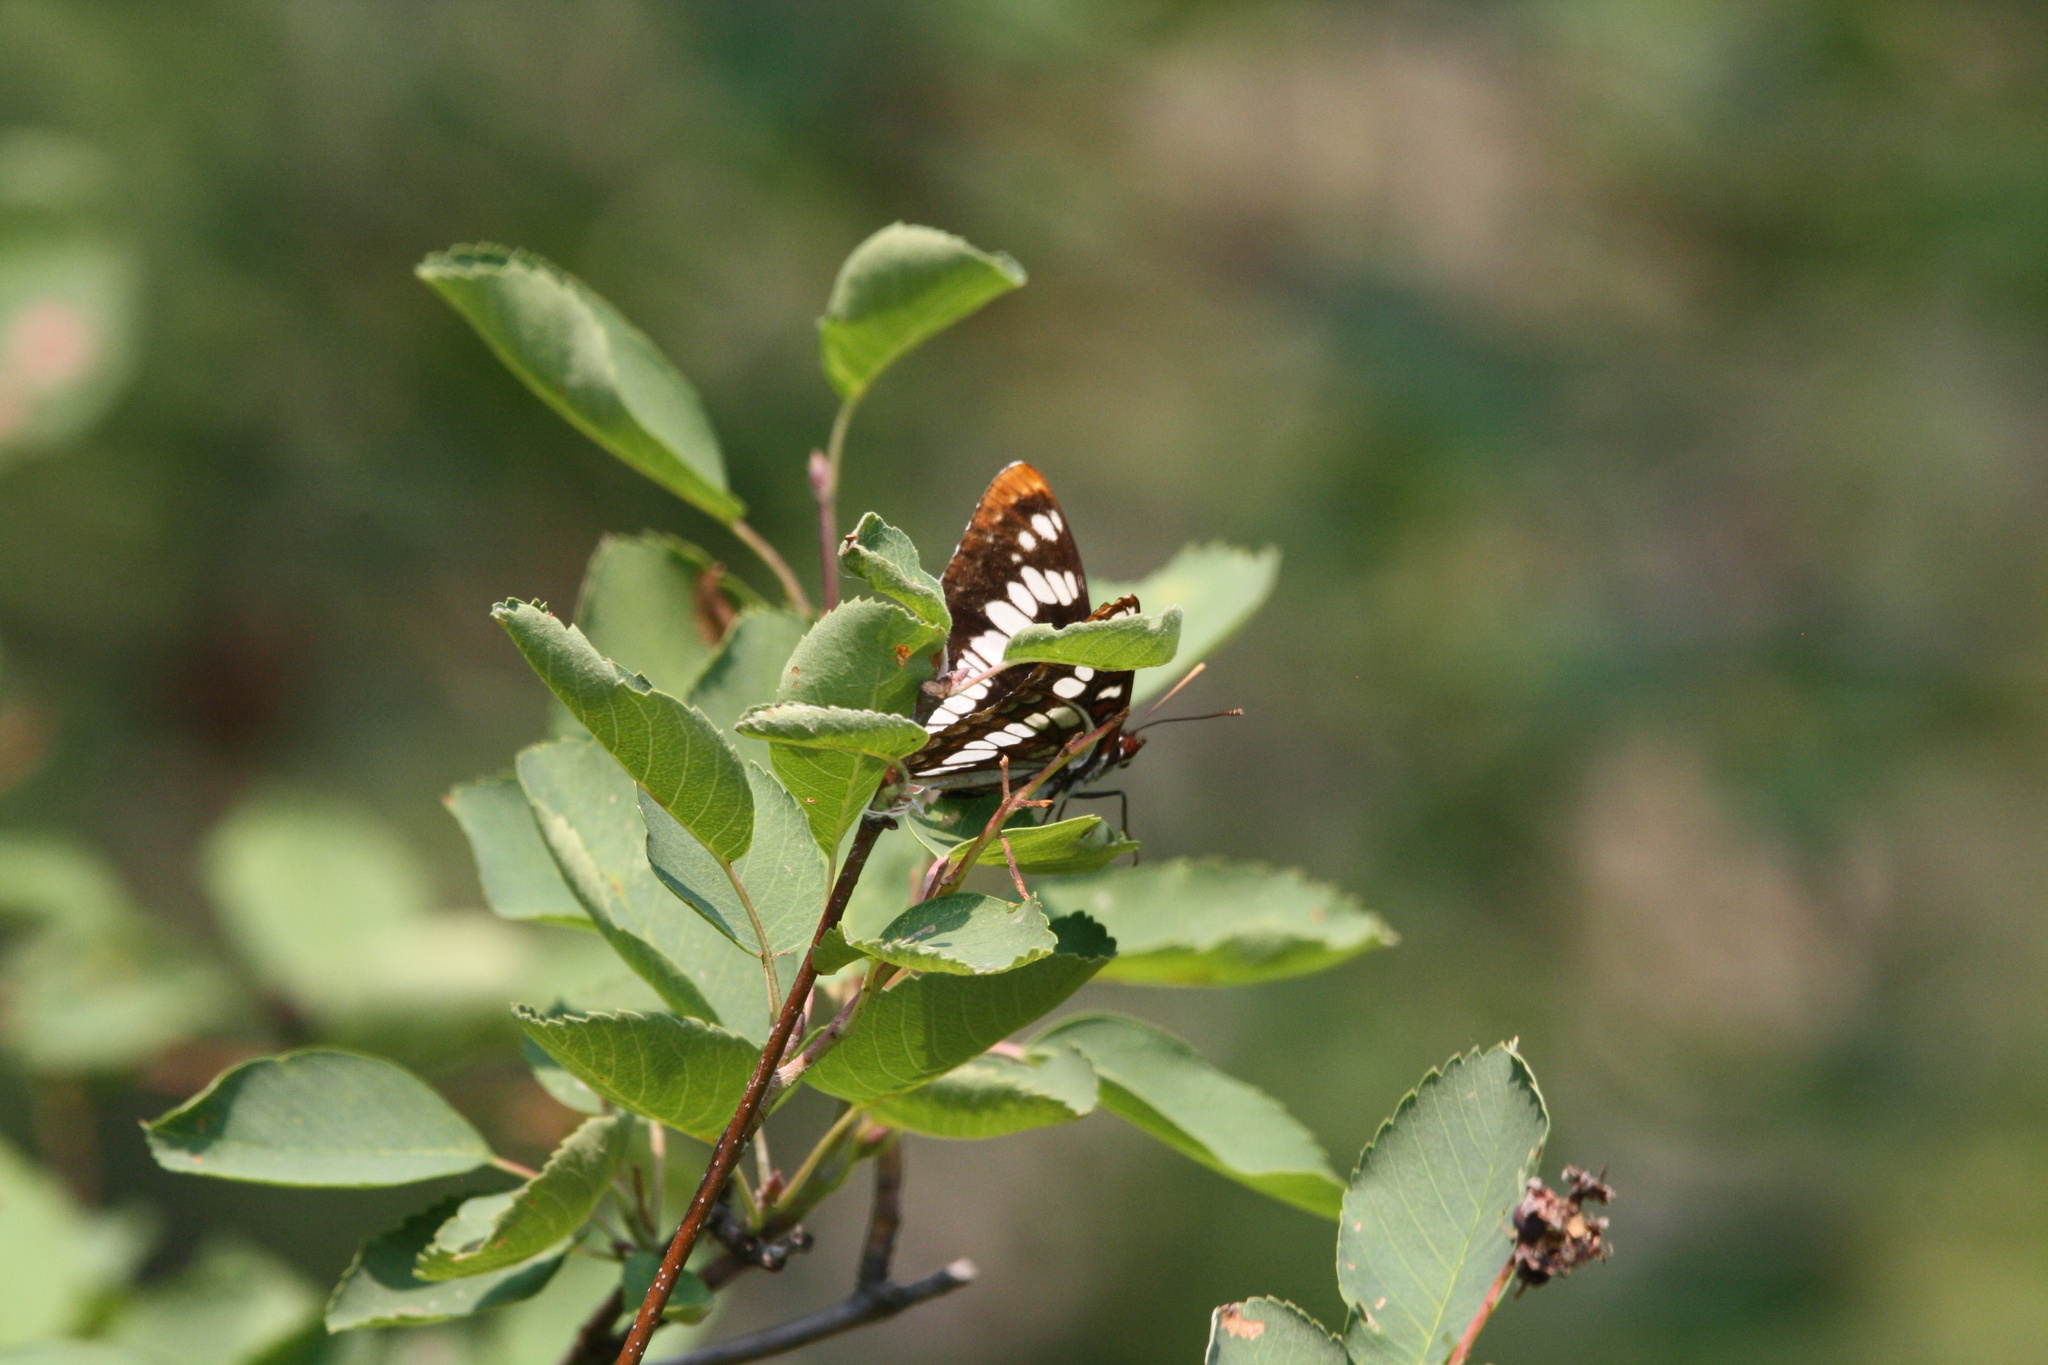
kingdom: Animalia
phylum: Arthropoda
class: Insecta
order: Lepidoptera
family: Nymphalidae
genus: Limenitis
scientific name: Limenitis lorquini
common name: Lorquin's admiral
